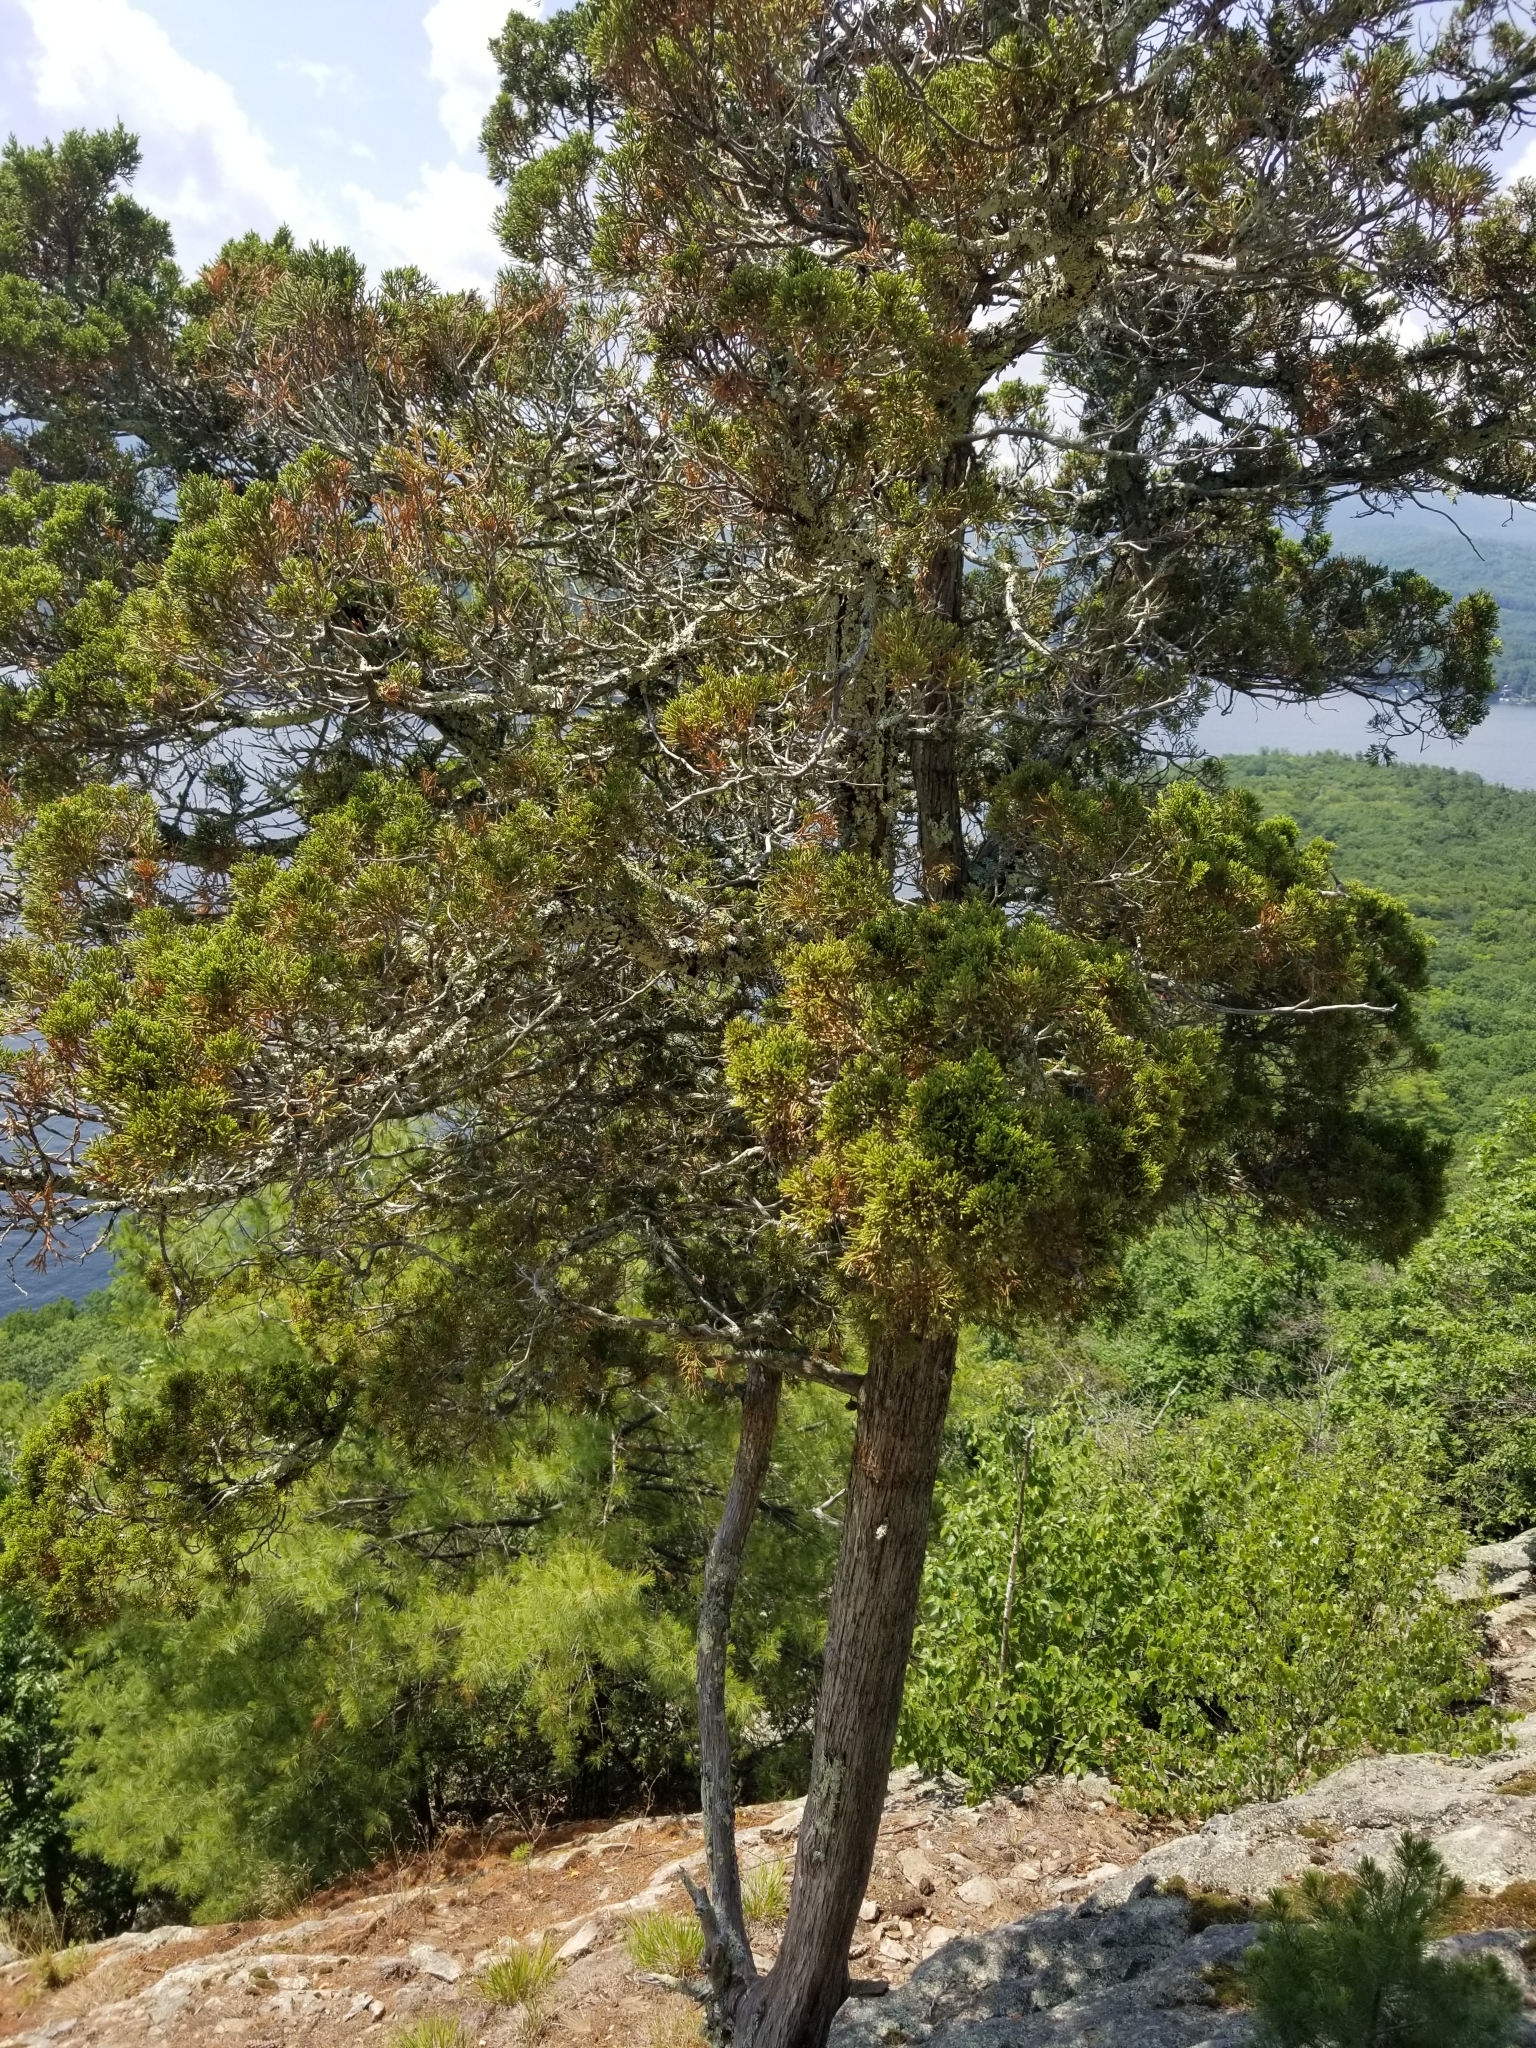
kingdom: Plantae
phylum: Tracheophyta
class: Pinopsida
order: Pinales
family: Cupressaceae
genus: Juniperus
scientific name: Juniperus virginiana
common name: Red juniper
